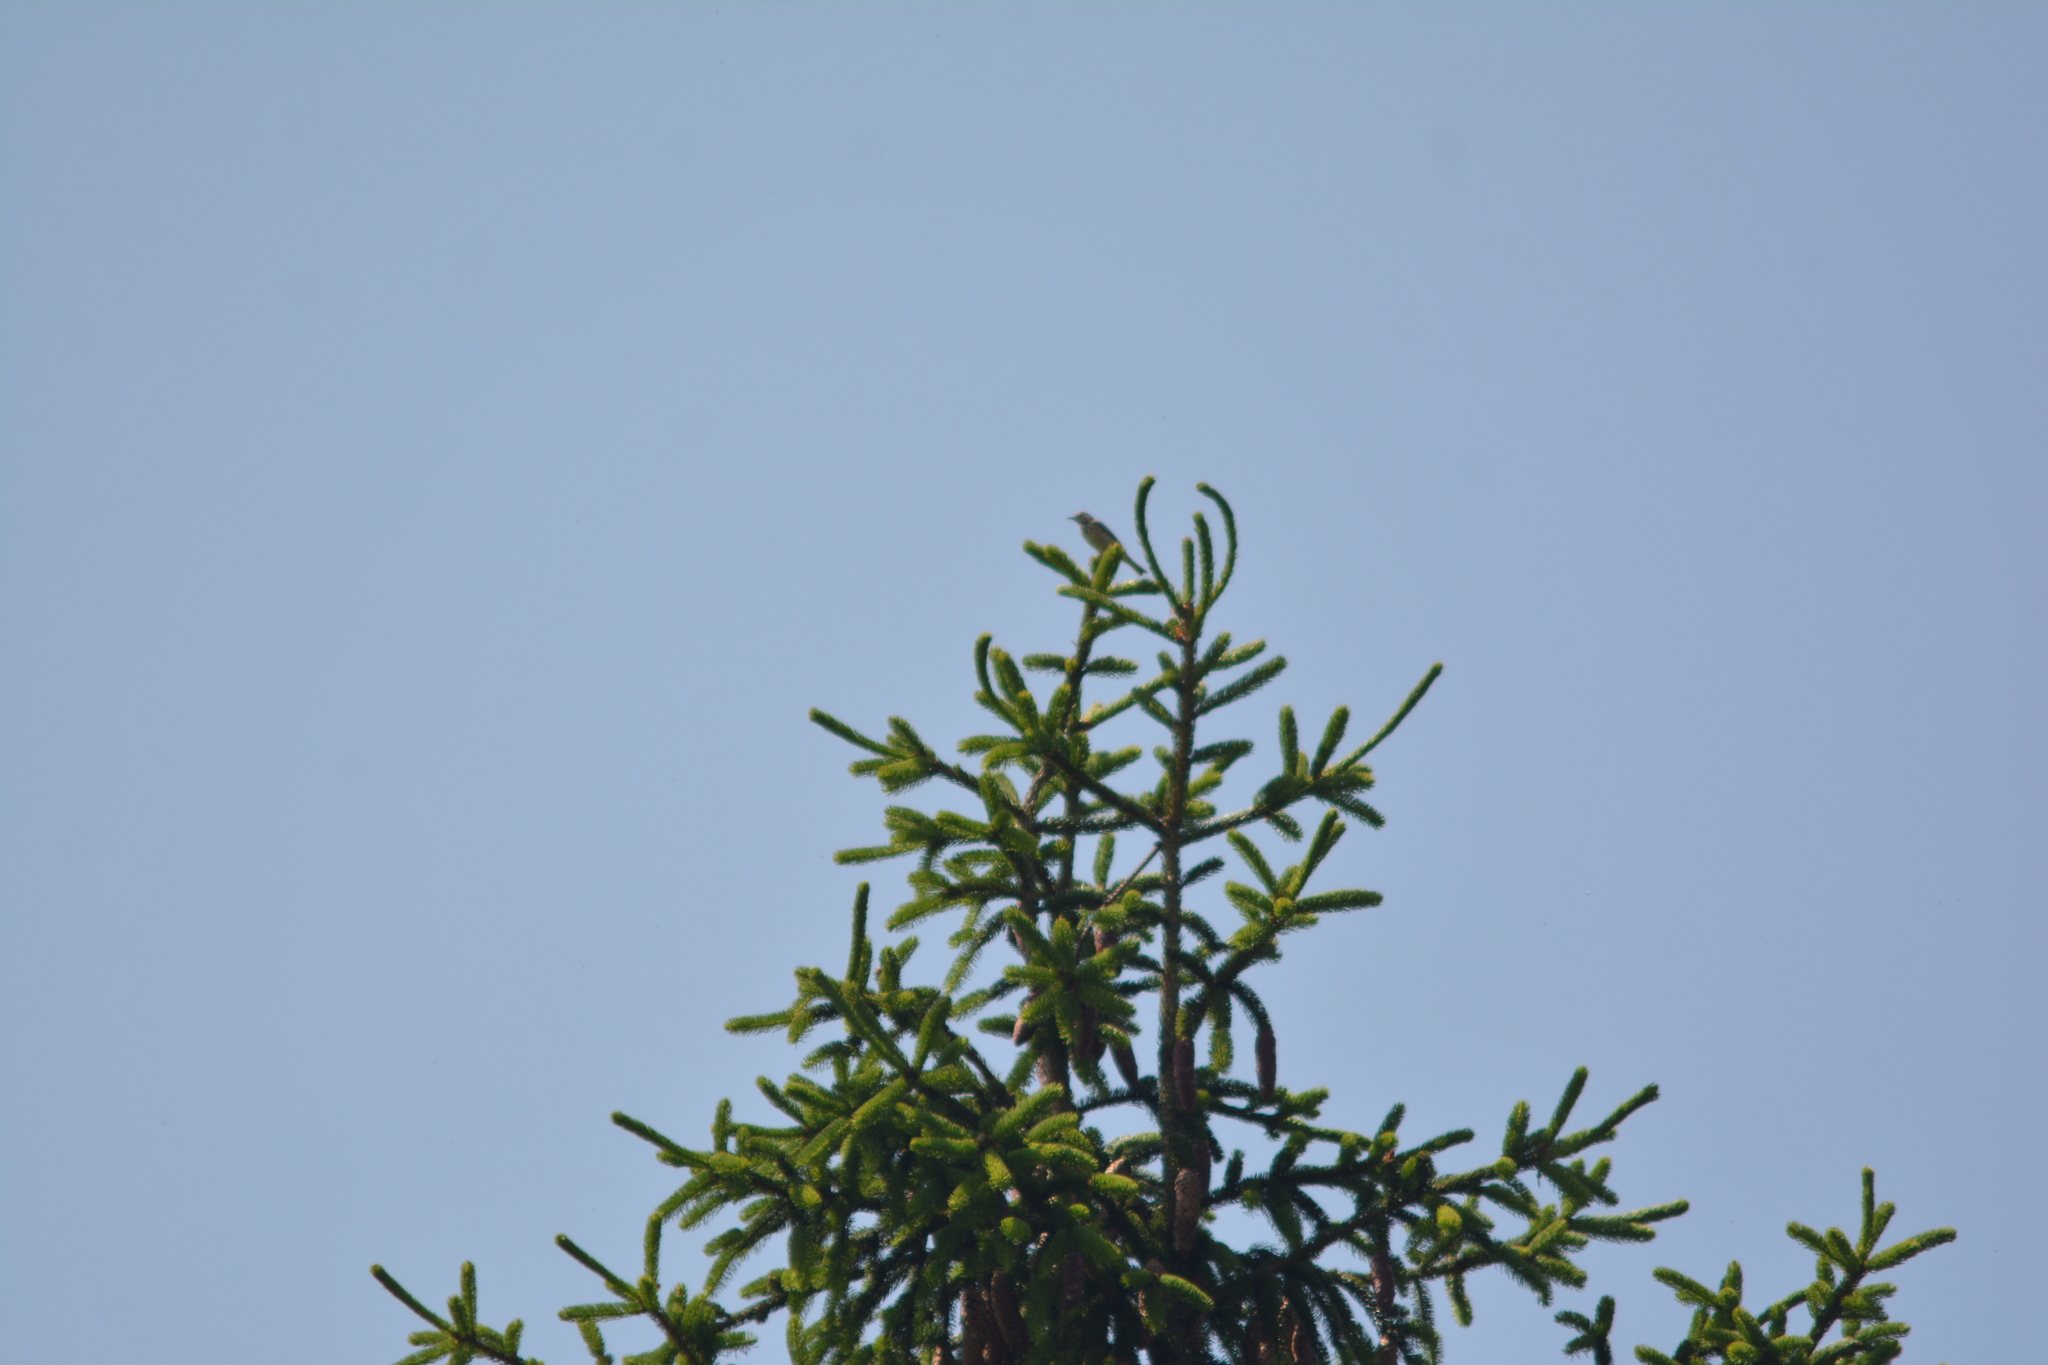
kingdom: Animalia
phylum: Chordata
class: Aves
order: Passeriformes
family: Motacillidae
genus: Anthus
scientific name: Anthus trivialis
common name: Tree pipit
